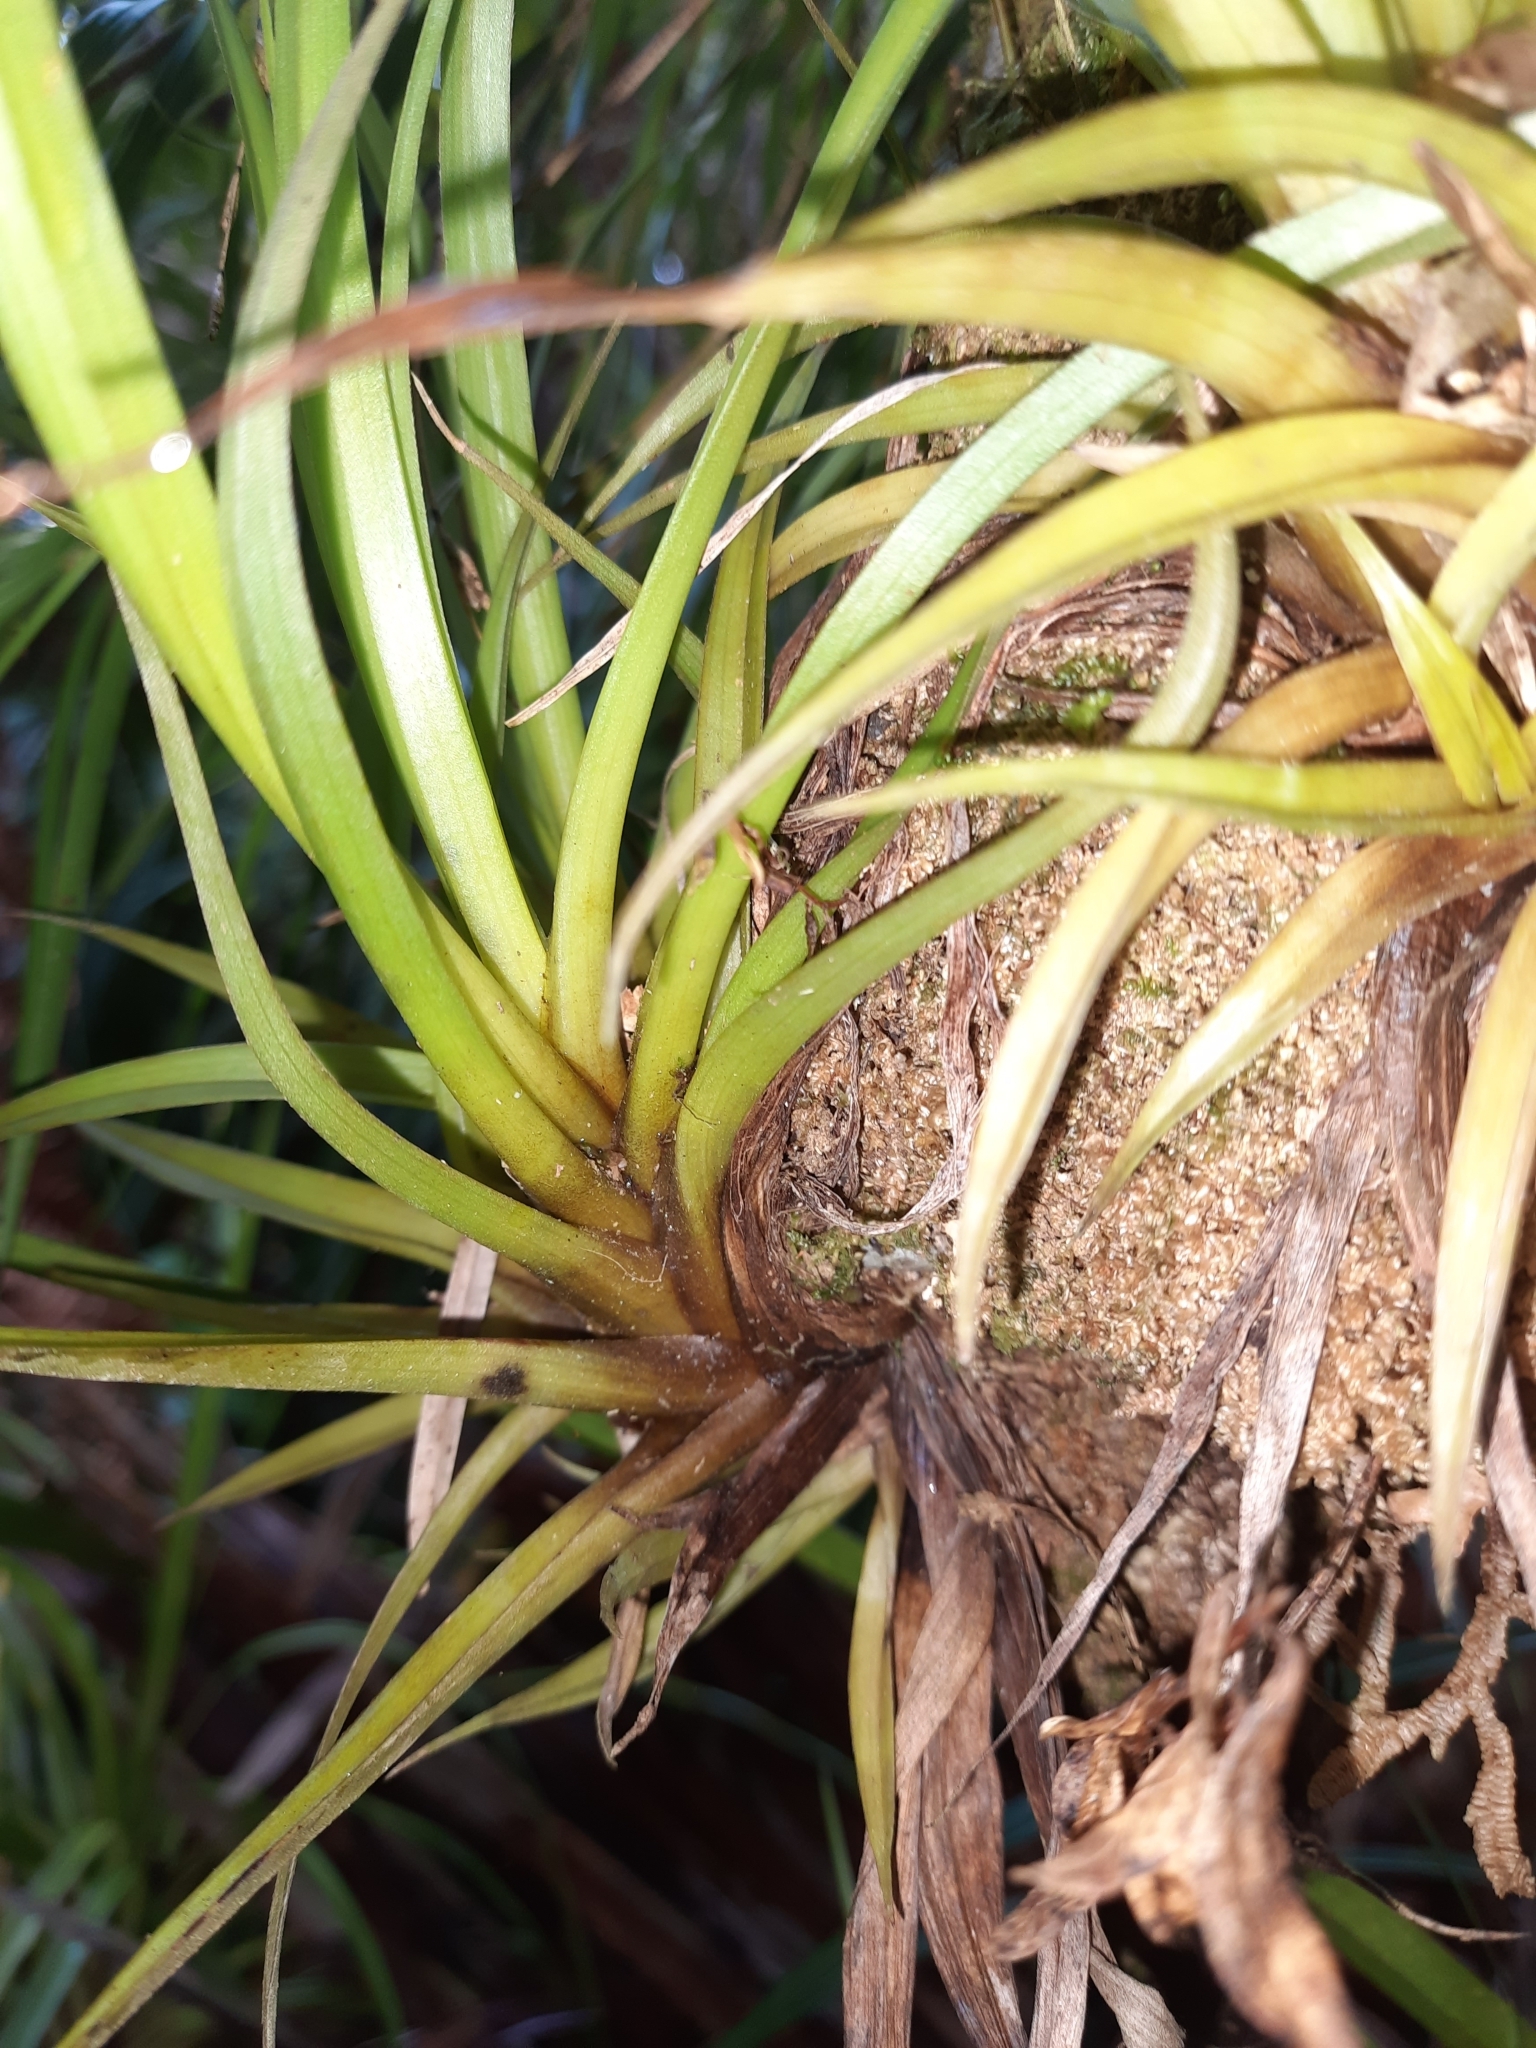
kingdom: Plantae
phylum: Tracheophyta
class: Liliopsida
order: Asparagales
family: Asteliaceae
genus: Astelia
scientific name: Astelia hastata
